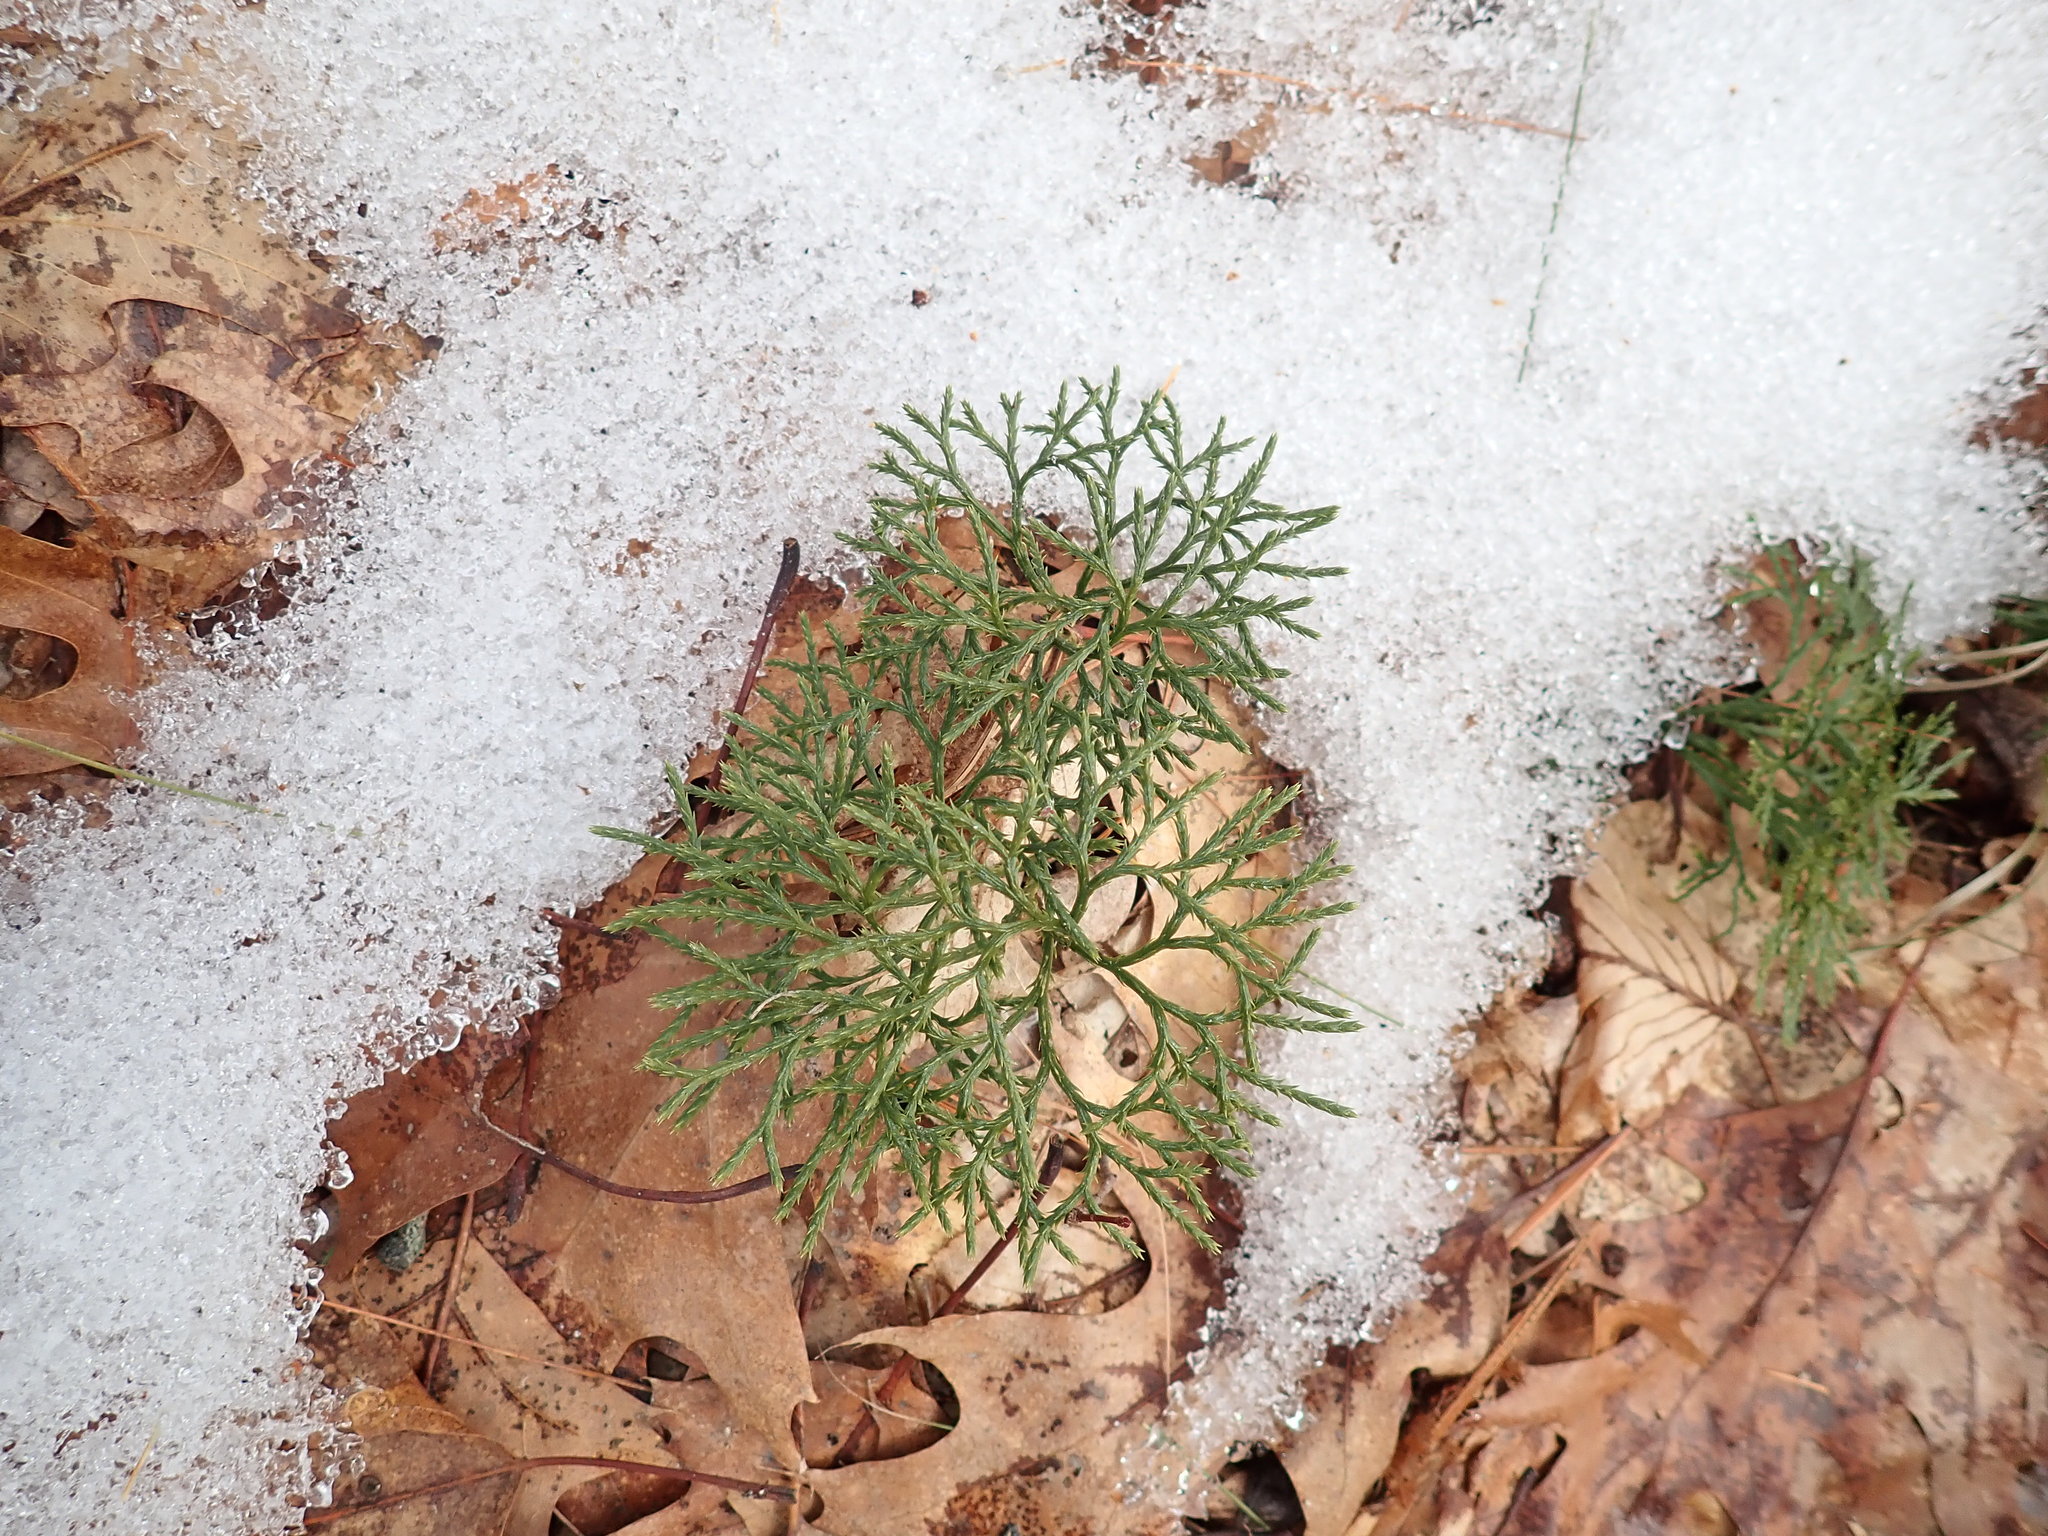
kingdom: Plantae
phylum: Tracheophyta
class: Lycopodiopsida
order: Lycopodiales
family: Lycopodiaceae
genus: Diphasiastrum
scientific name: Diphasiastrum digitatum
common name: Southern running-pine
